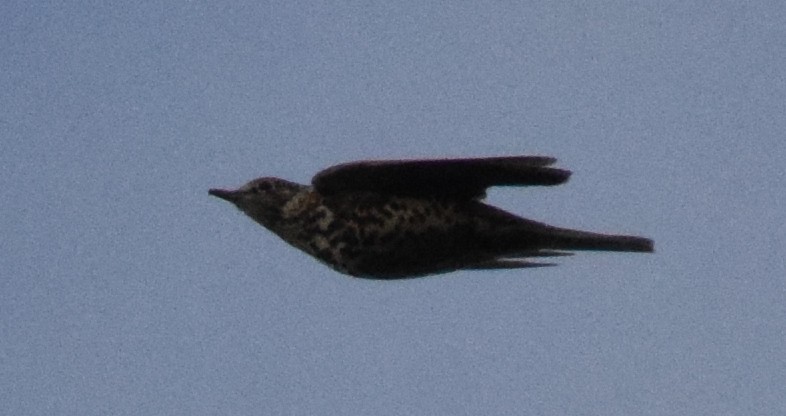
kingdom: Animalia
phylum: Chordata
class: Aves
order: Passeriformes
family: Turdidae
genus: Turdus
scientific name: Turdus viscivorus
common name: Mistle thrush
